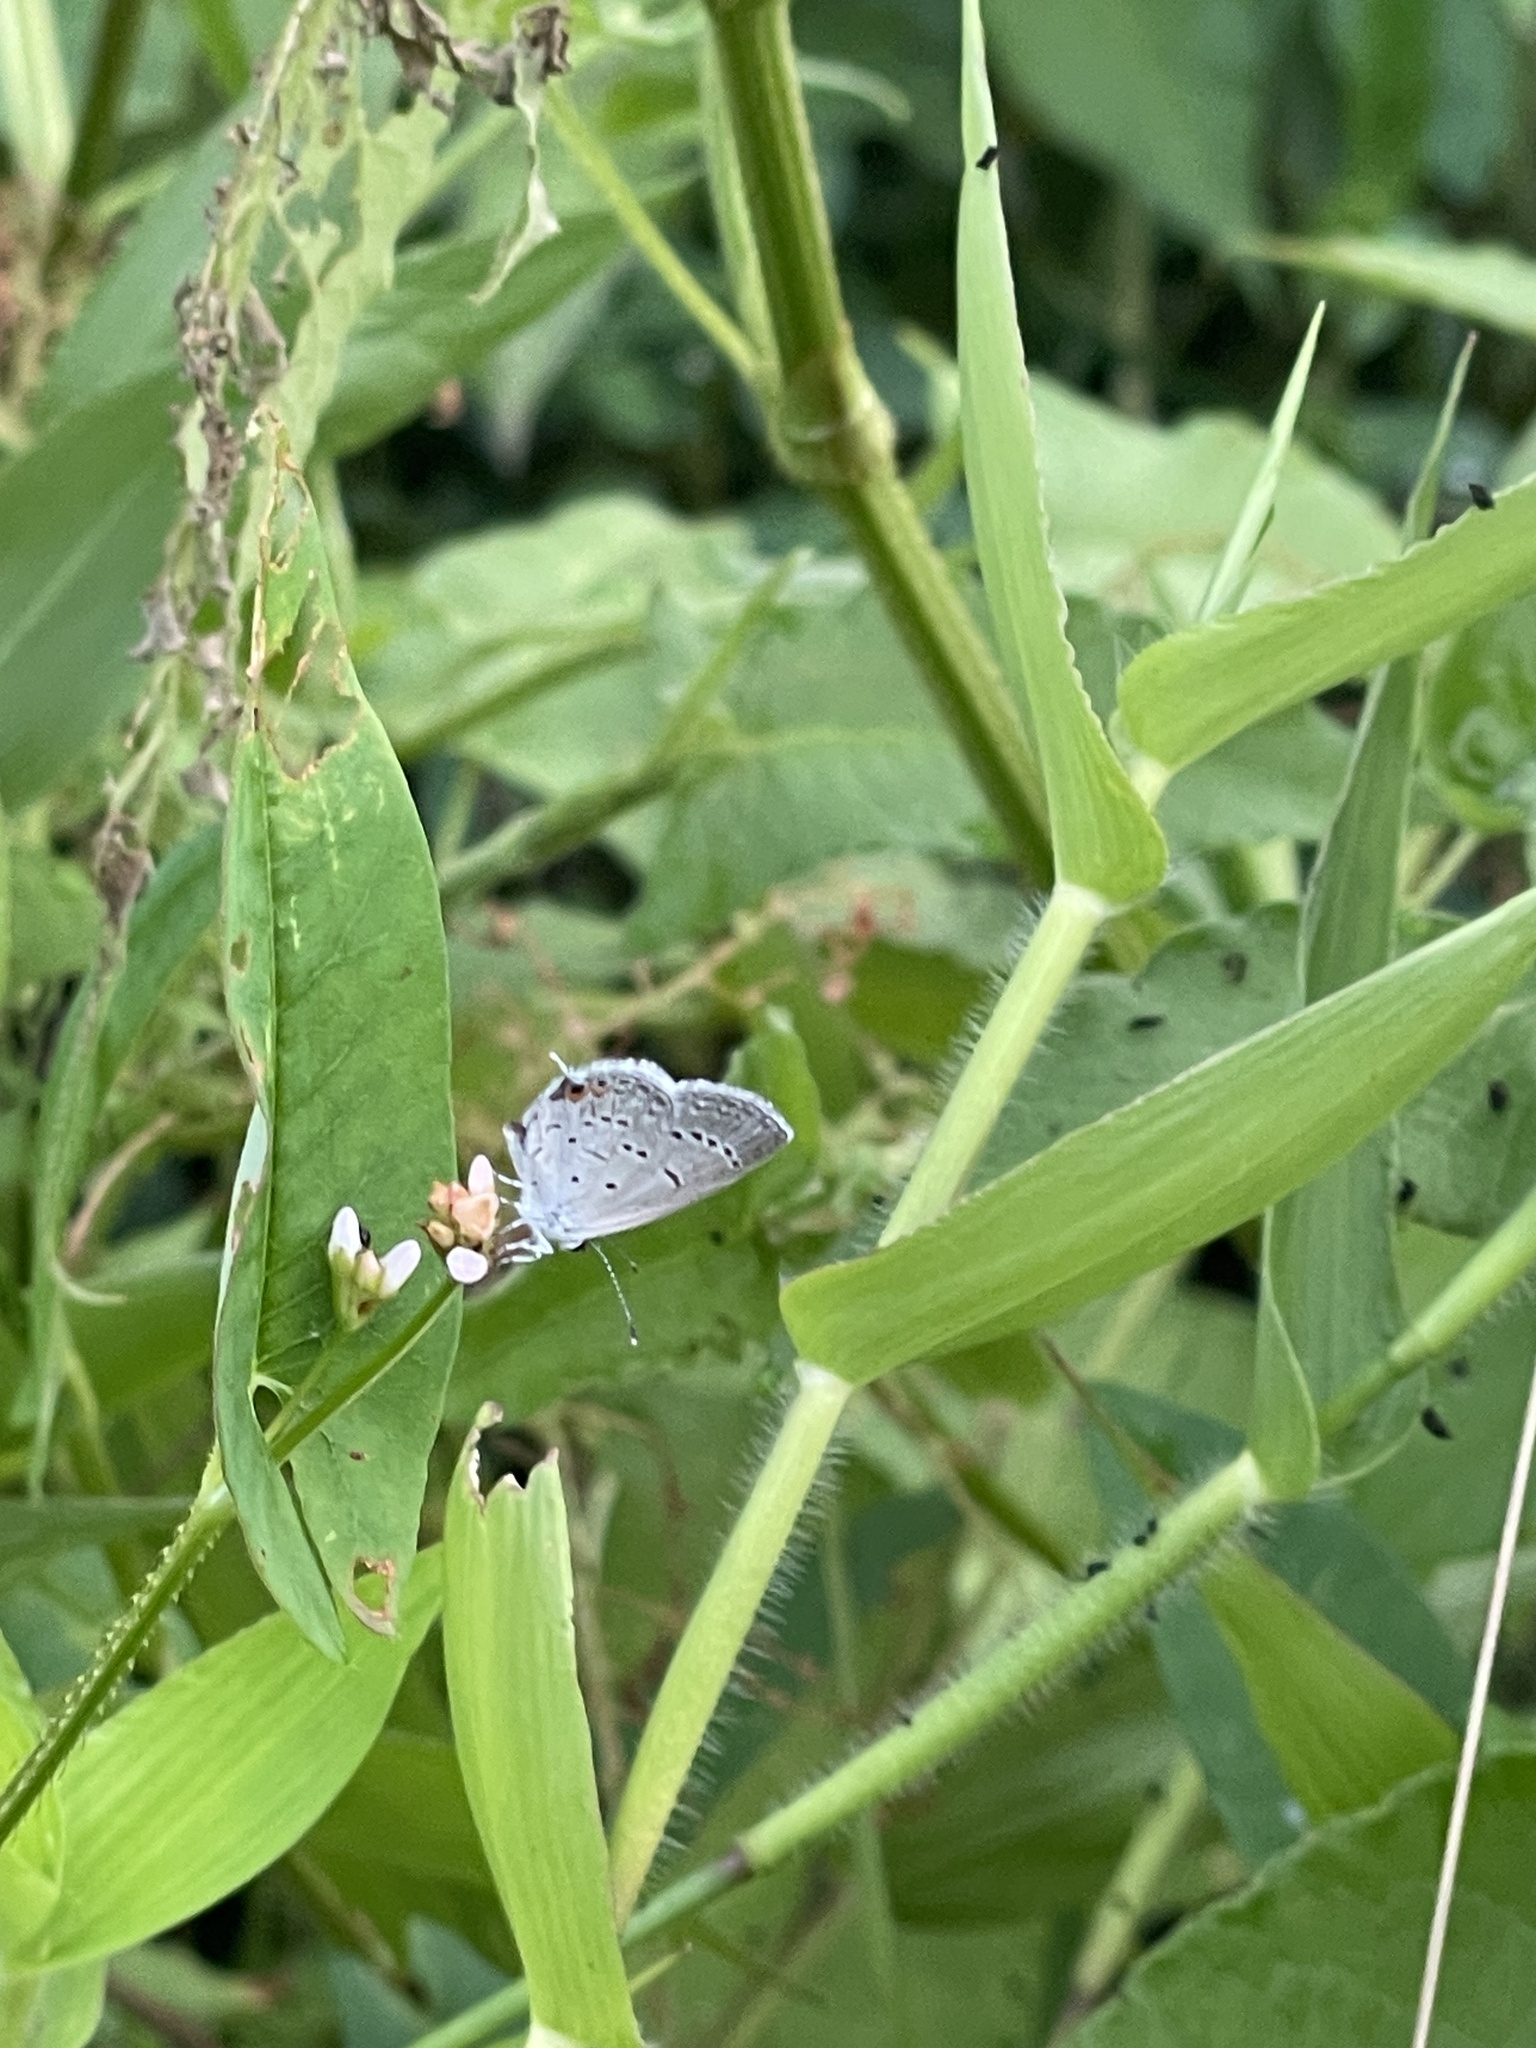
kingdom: Animalia
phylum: Arthropoda
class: Insecta
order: Lepidoptera
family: Lycaenidae
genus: Elkalyce
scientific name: Elkalyce comyntas
